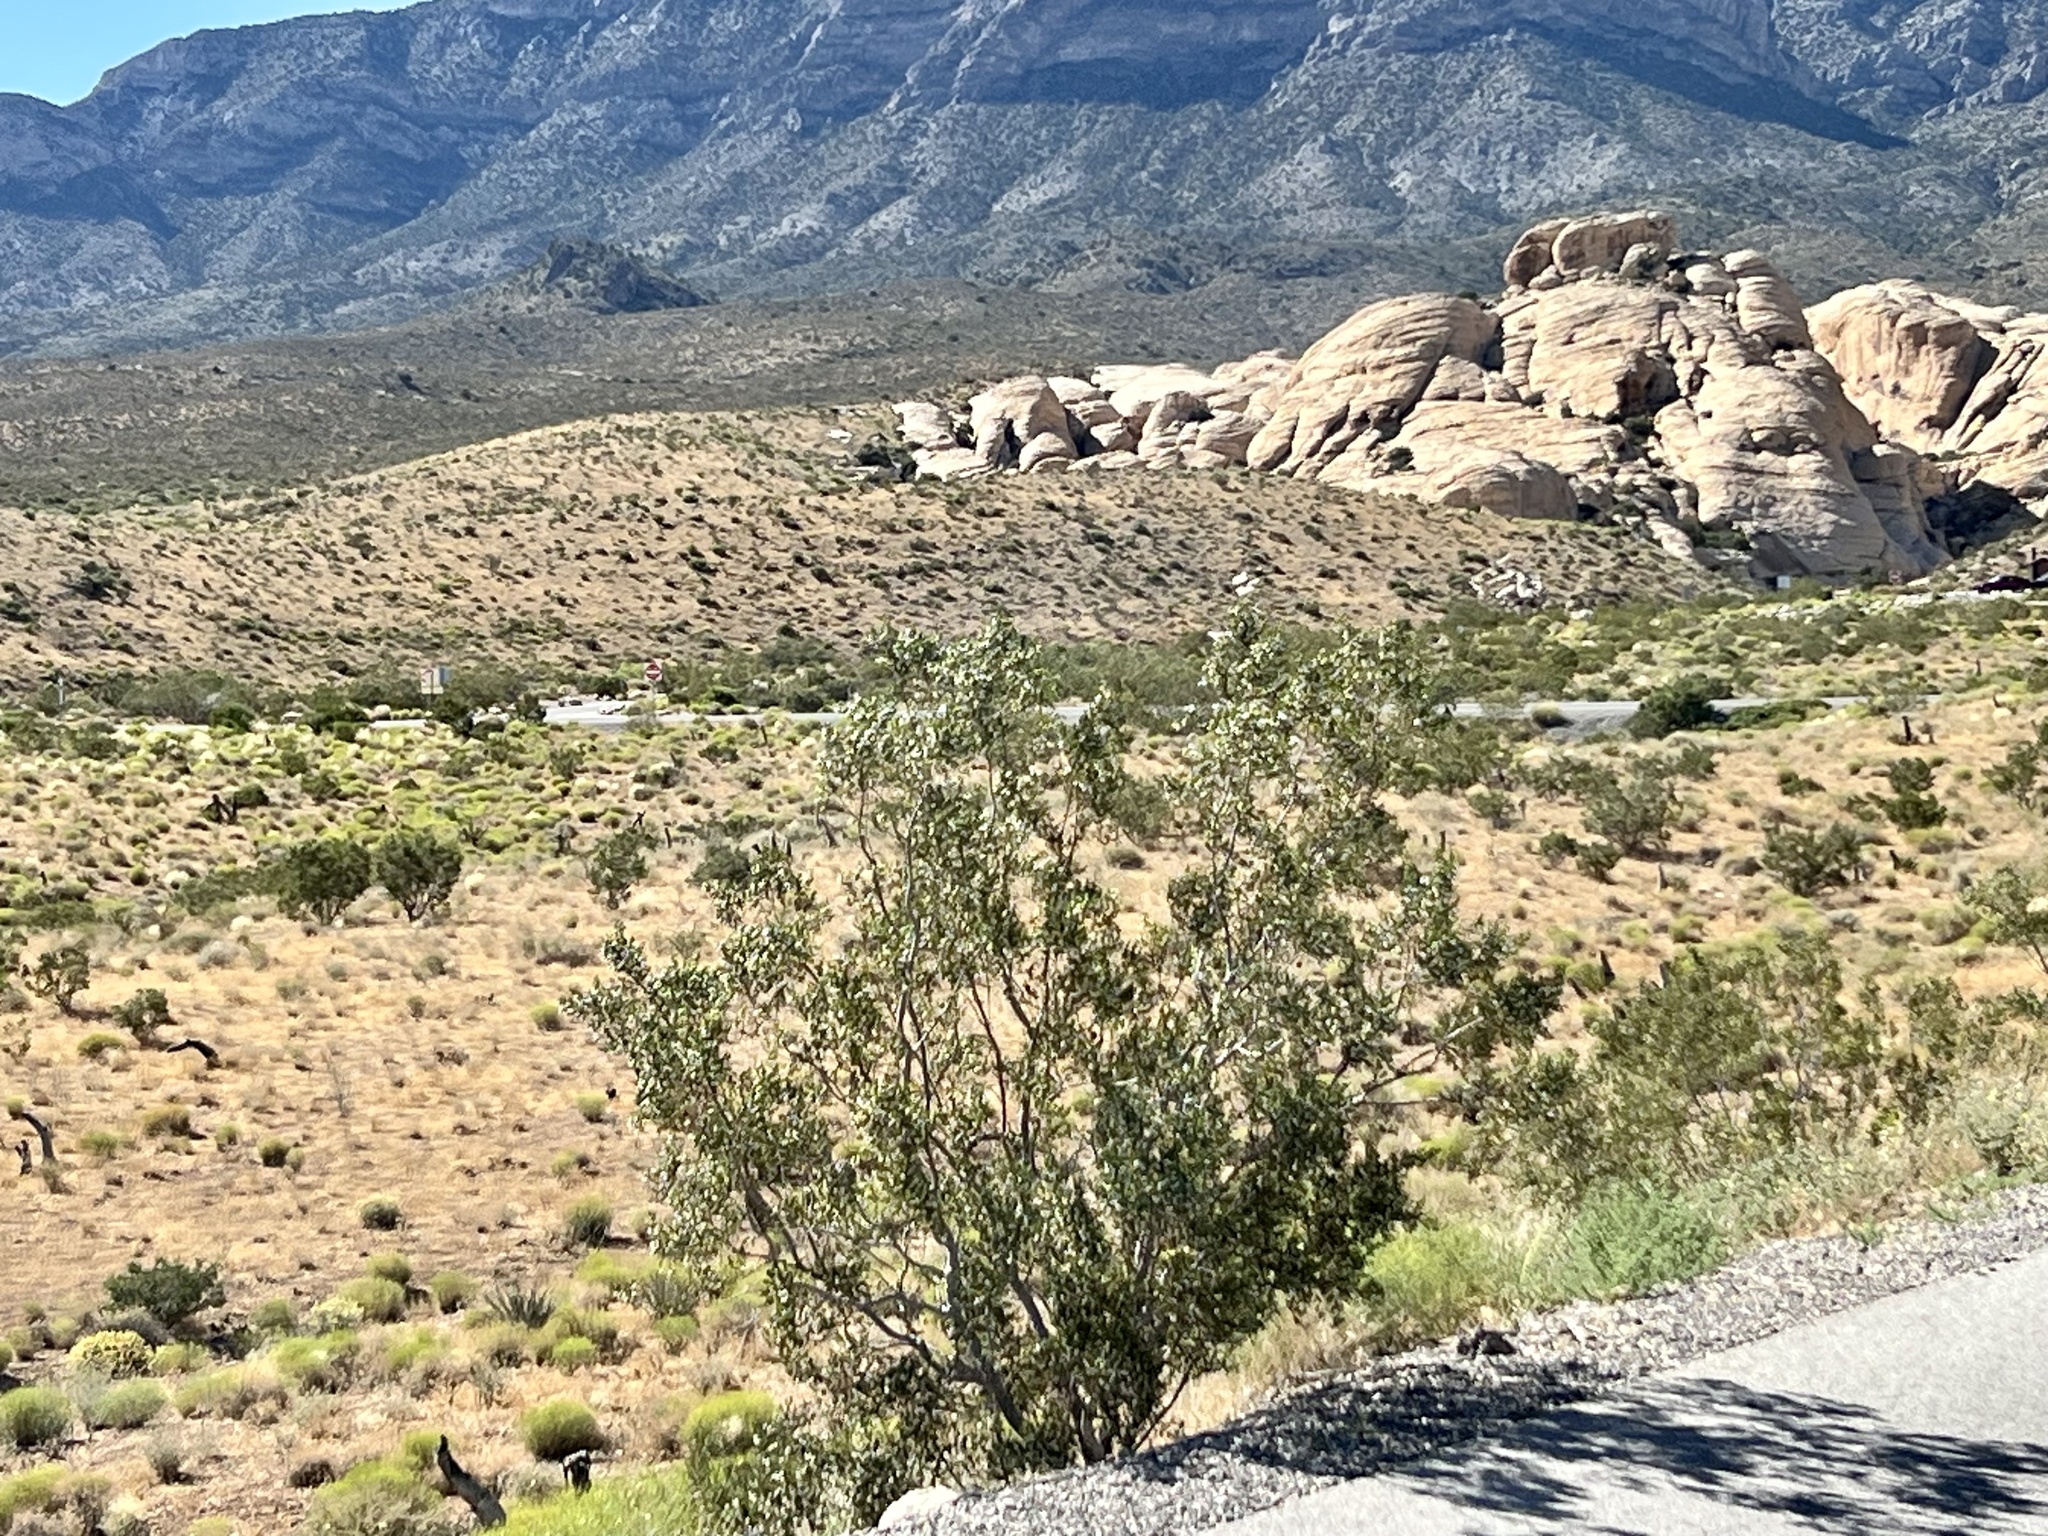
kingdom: Plantae
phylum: Tracheophyta
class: Magnoliopsida
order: Zygophyllales
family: Zygophyllaceae
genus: Larrea
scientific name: Larrea tridentata
